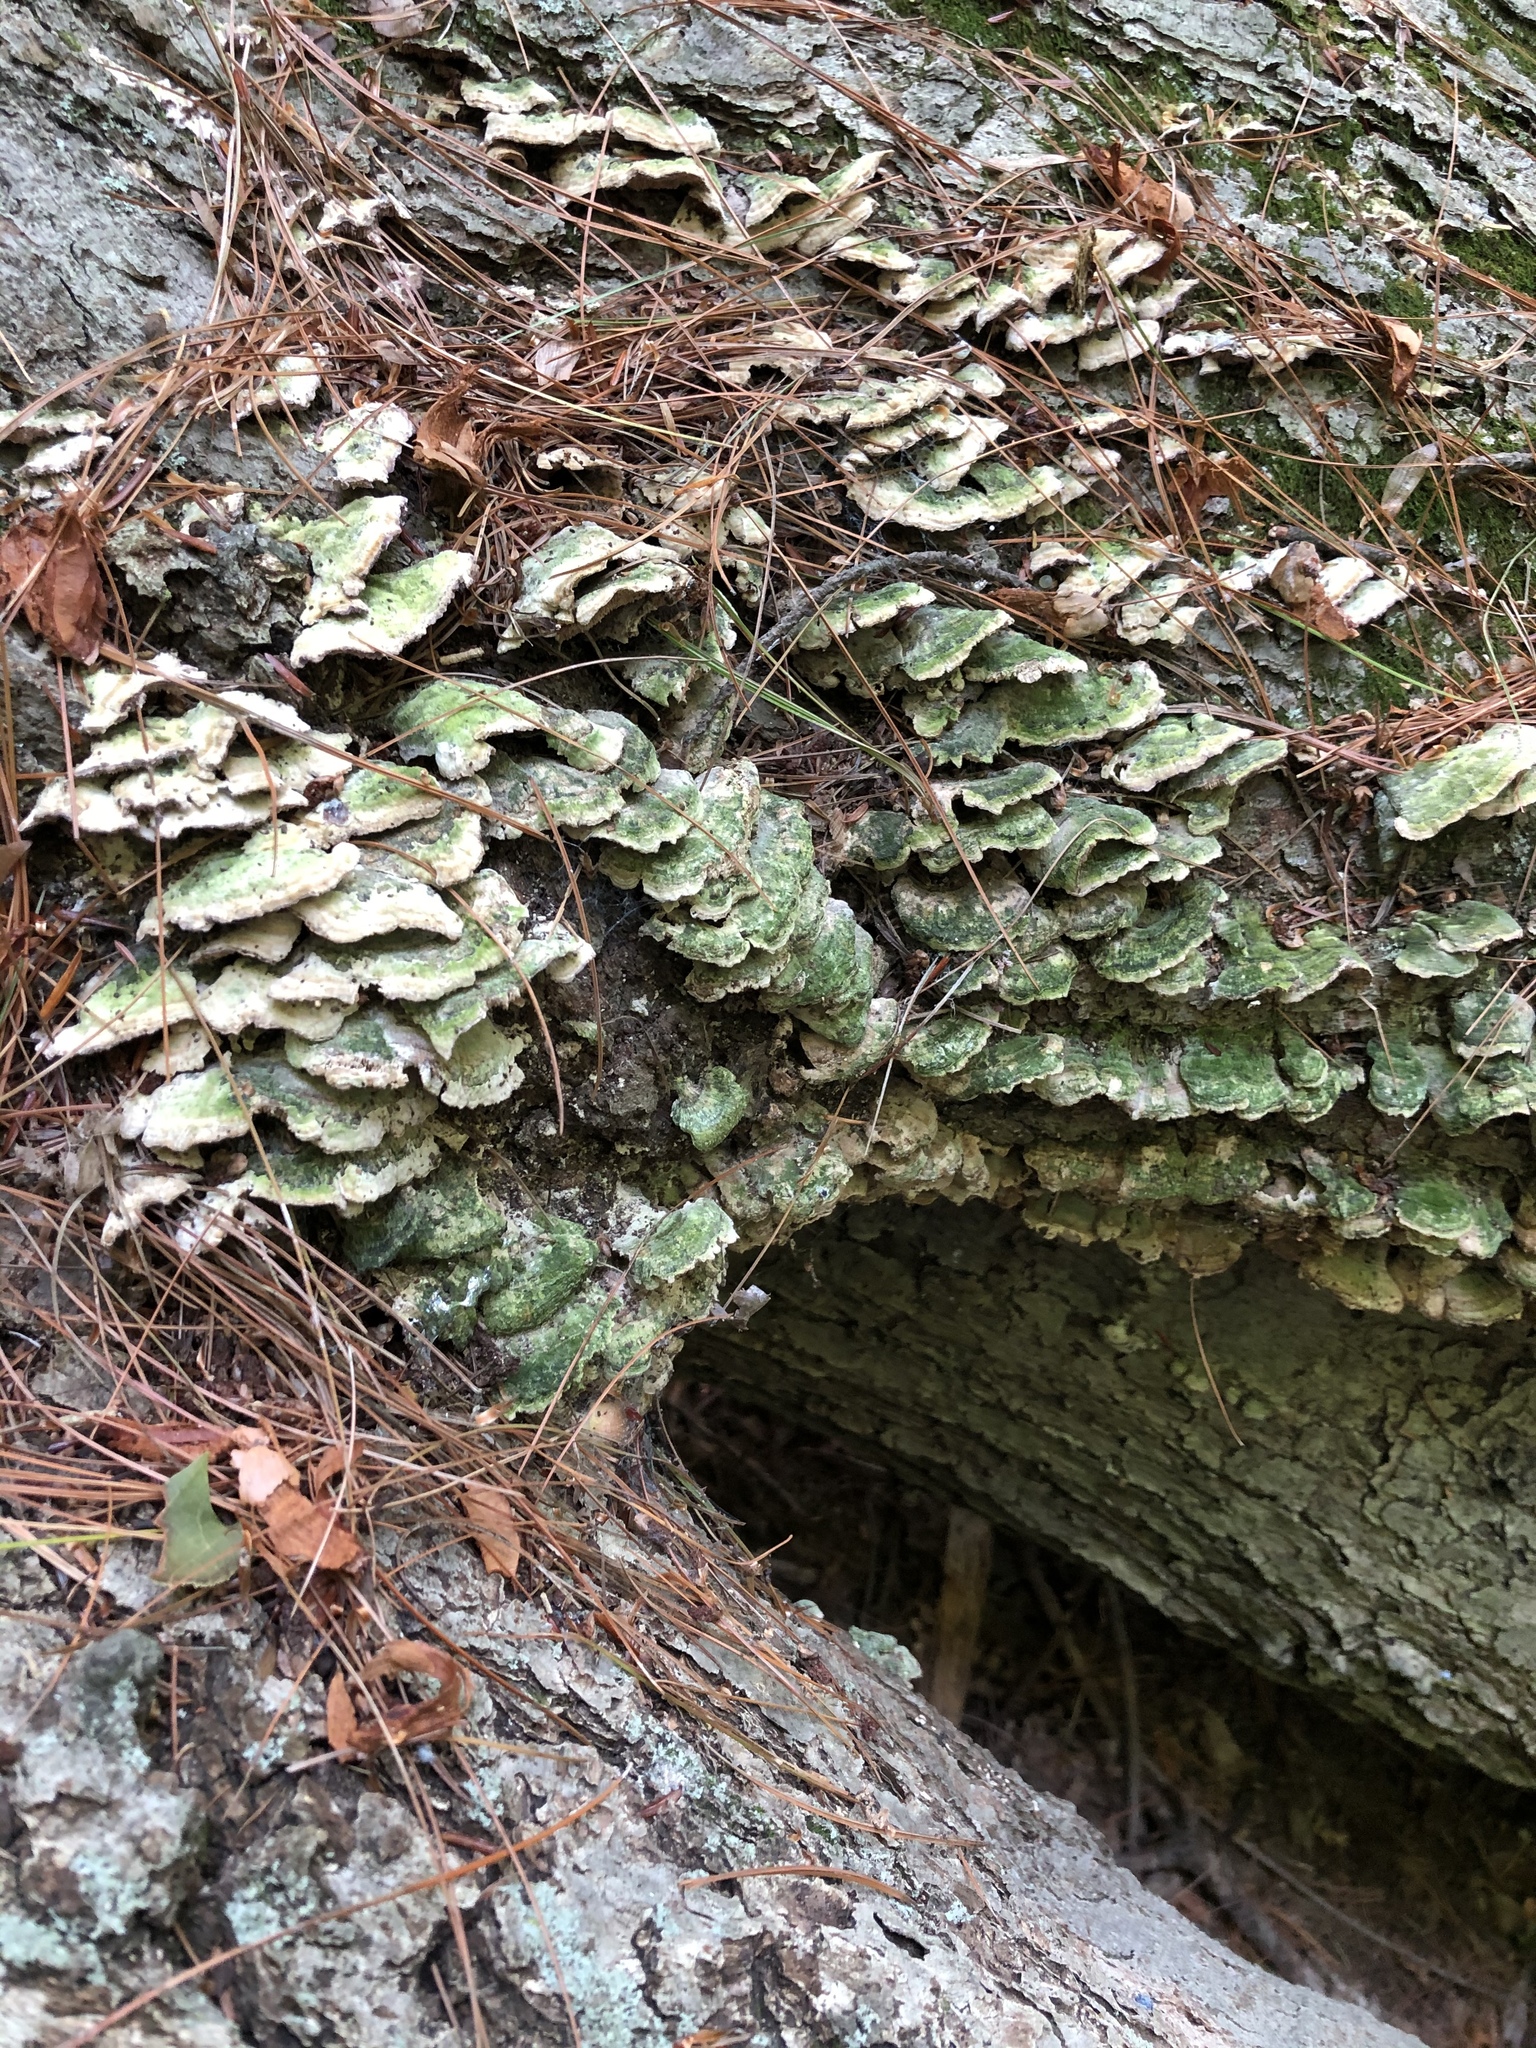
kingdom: Fungi
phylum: Basidiomycota
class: Agaricomycetes
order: Hymenochaetales
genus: Trichaptum
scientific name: Trichaptum abietinum
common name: Purplepore bracket
